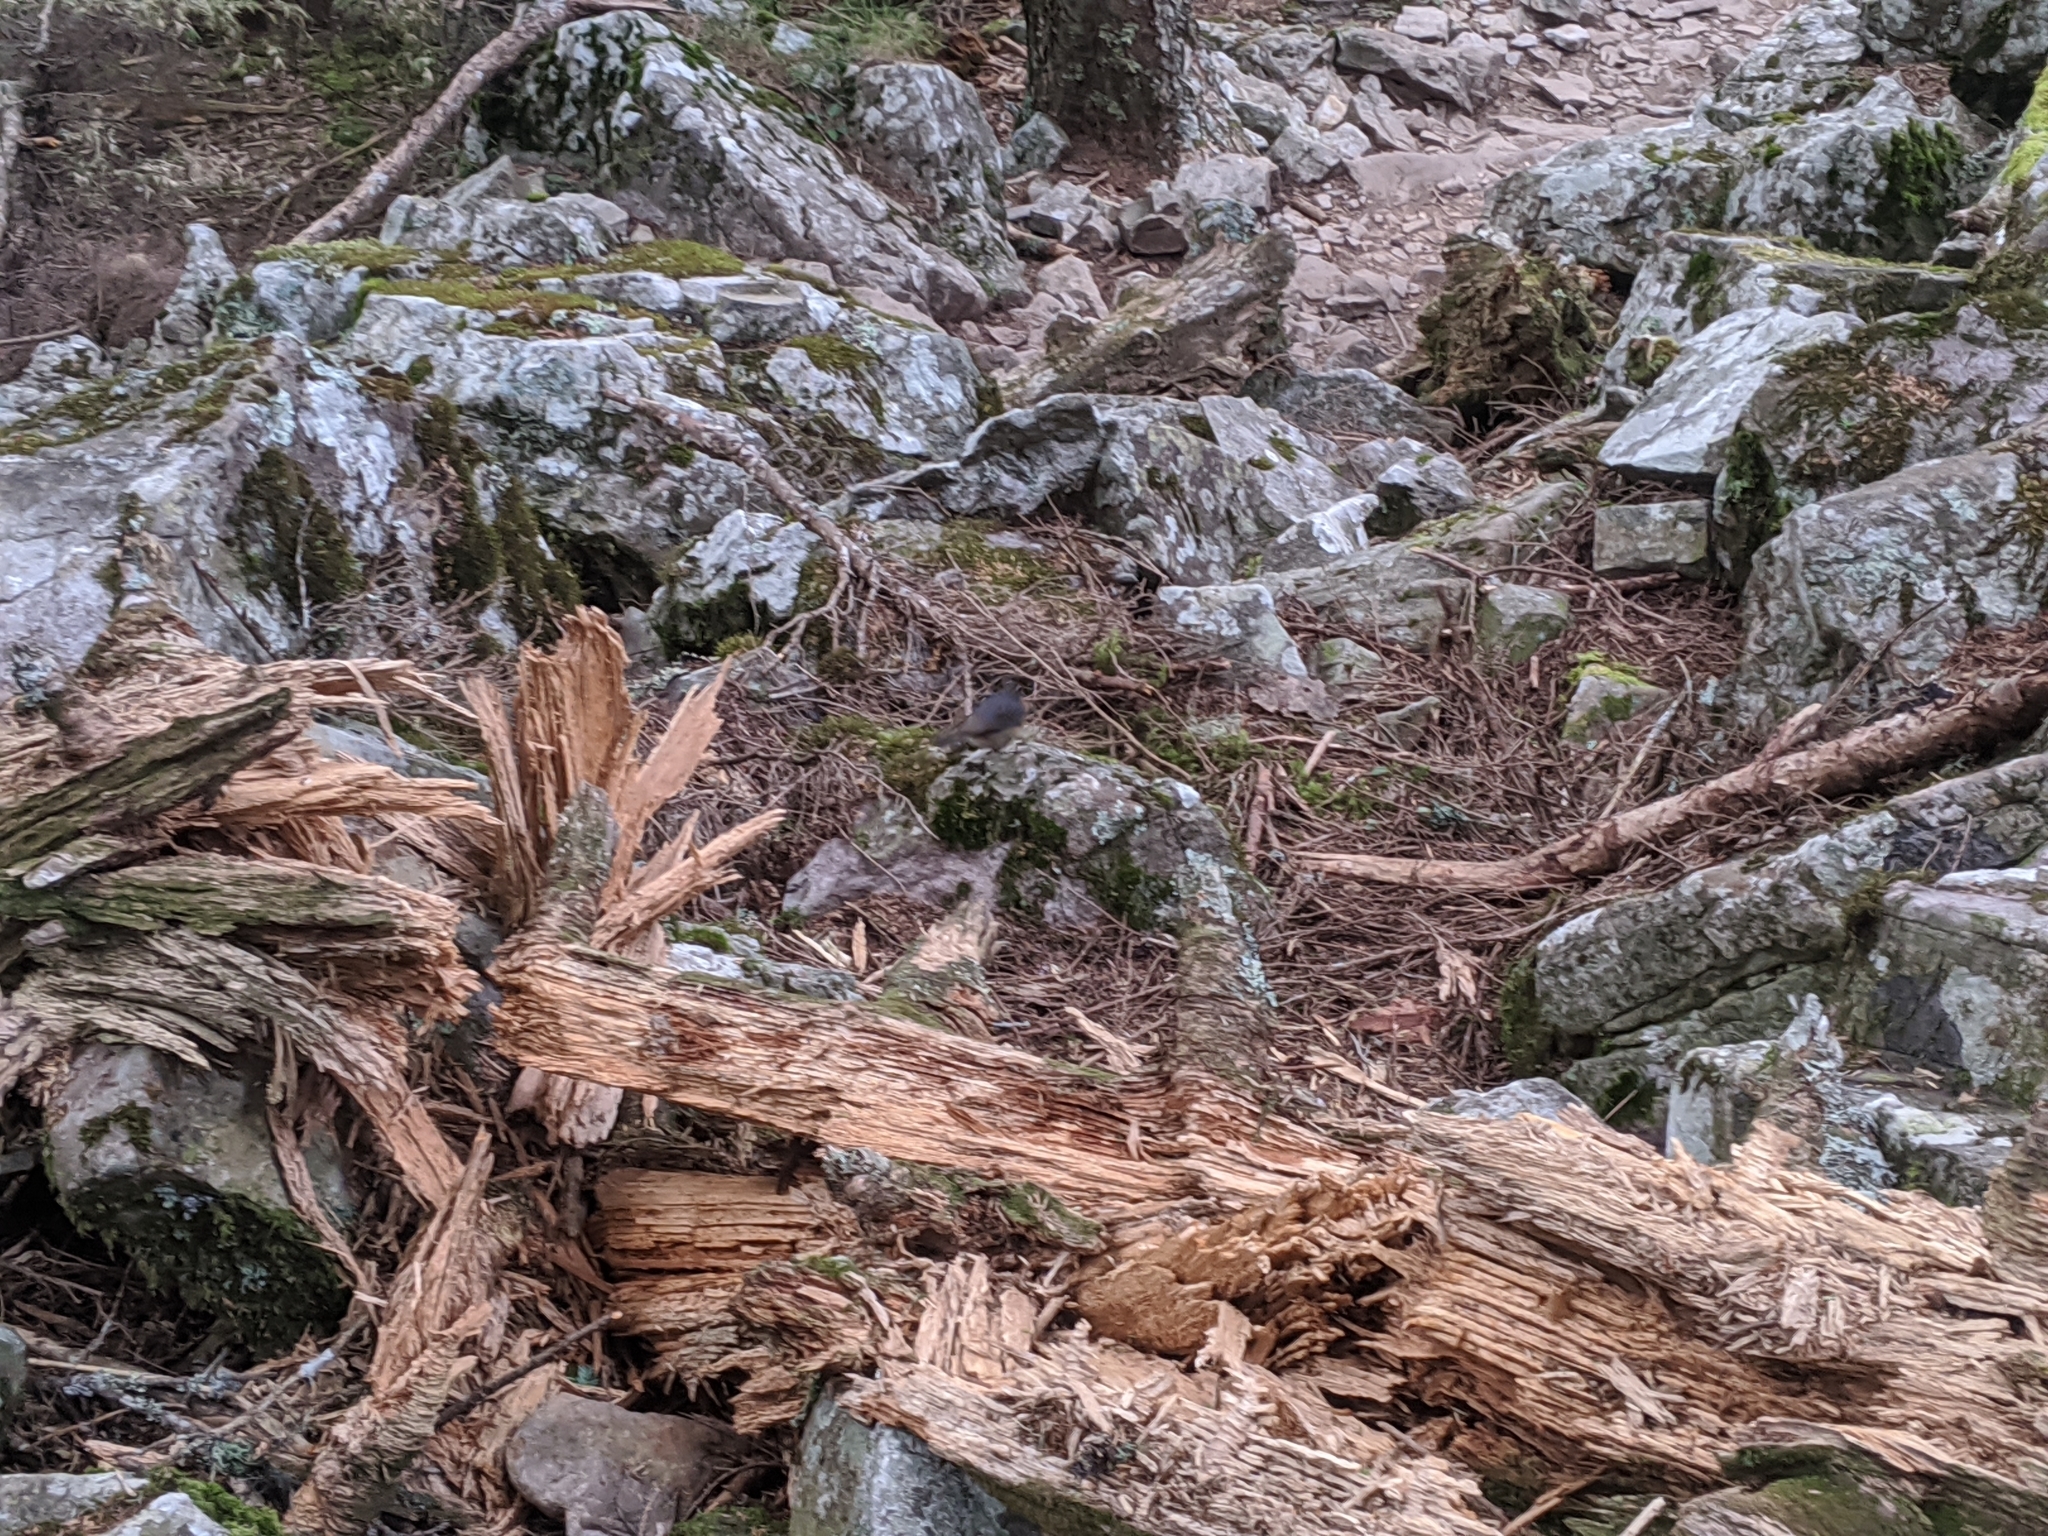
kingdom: Animalia
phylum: Chordata
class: Aves
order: Passeriformes
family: Muscicapidae
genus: Tarsiger
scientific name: Tarsiger johnstoniae
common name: Collared bush robin
